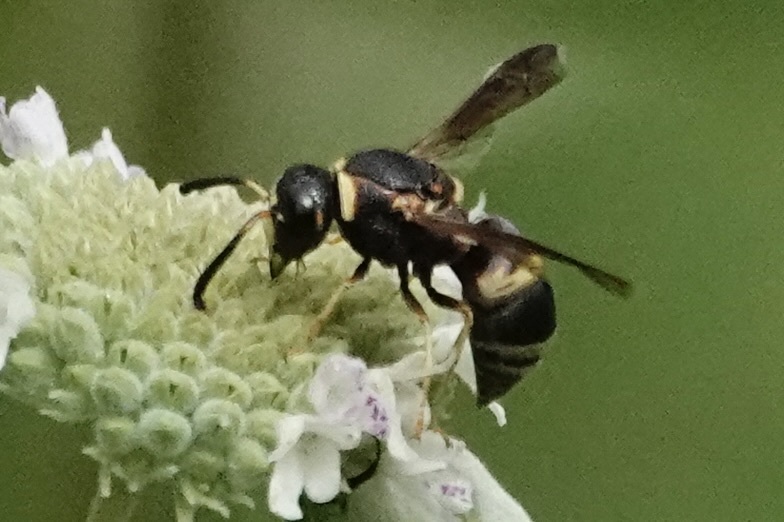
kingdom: Animalia
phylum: Arthropoda
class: Insecta
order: Hymenoptera
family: Eumenidae
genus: Euodynerus
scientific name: Euodynerus hidalgo
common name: Wasp
